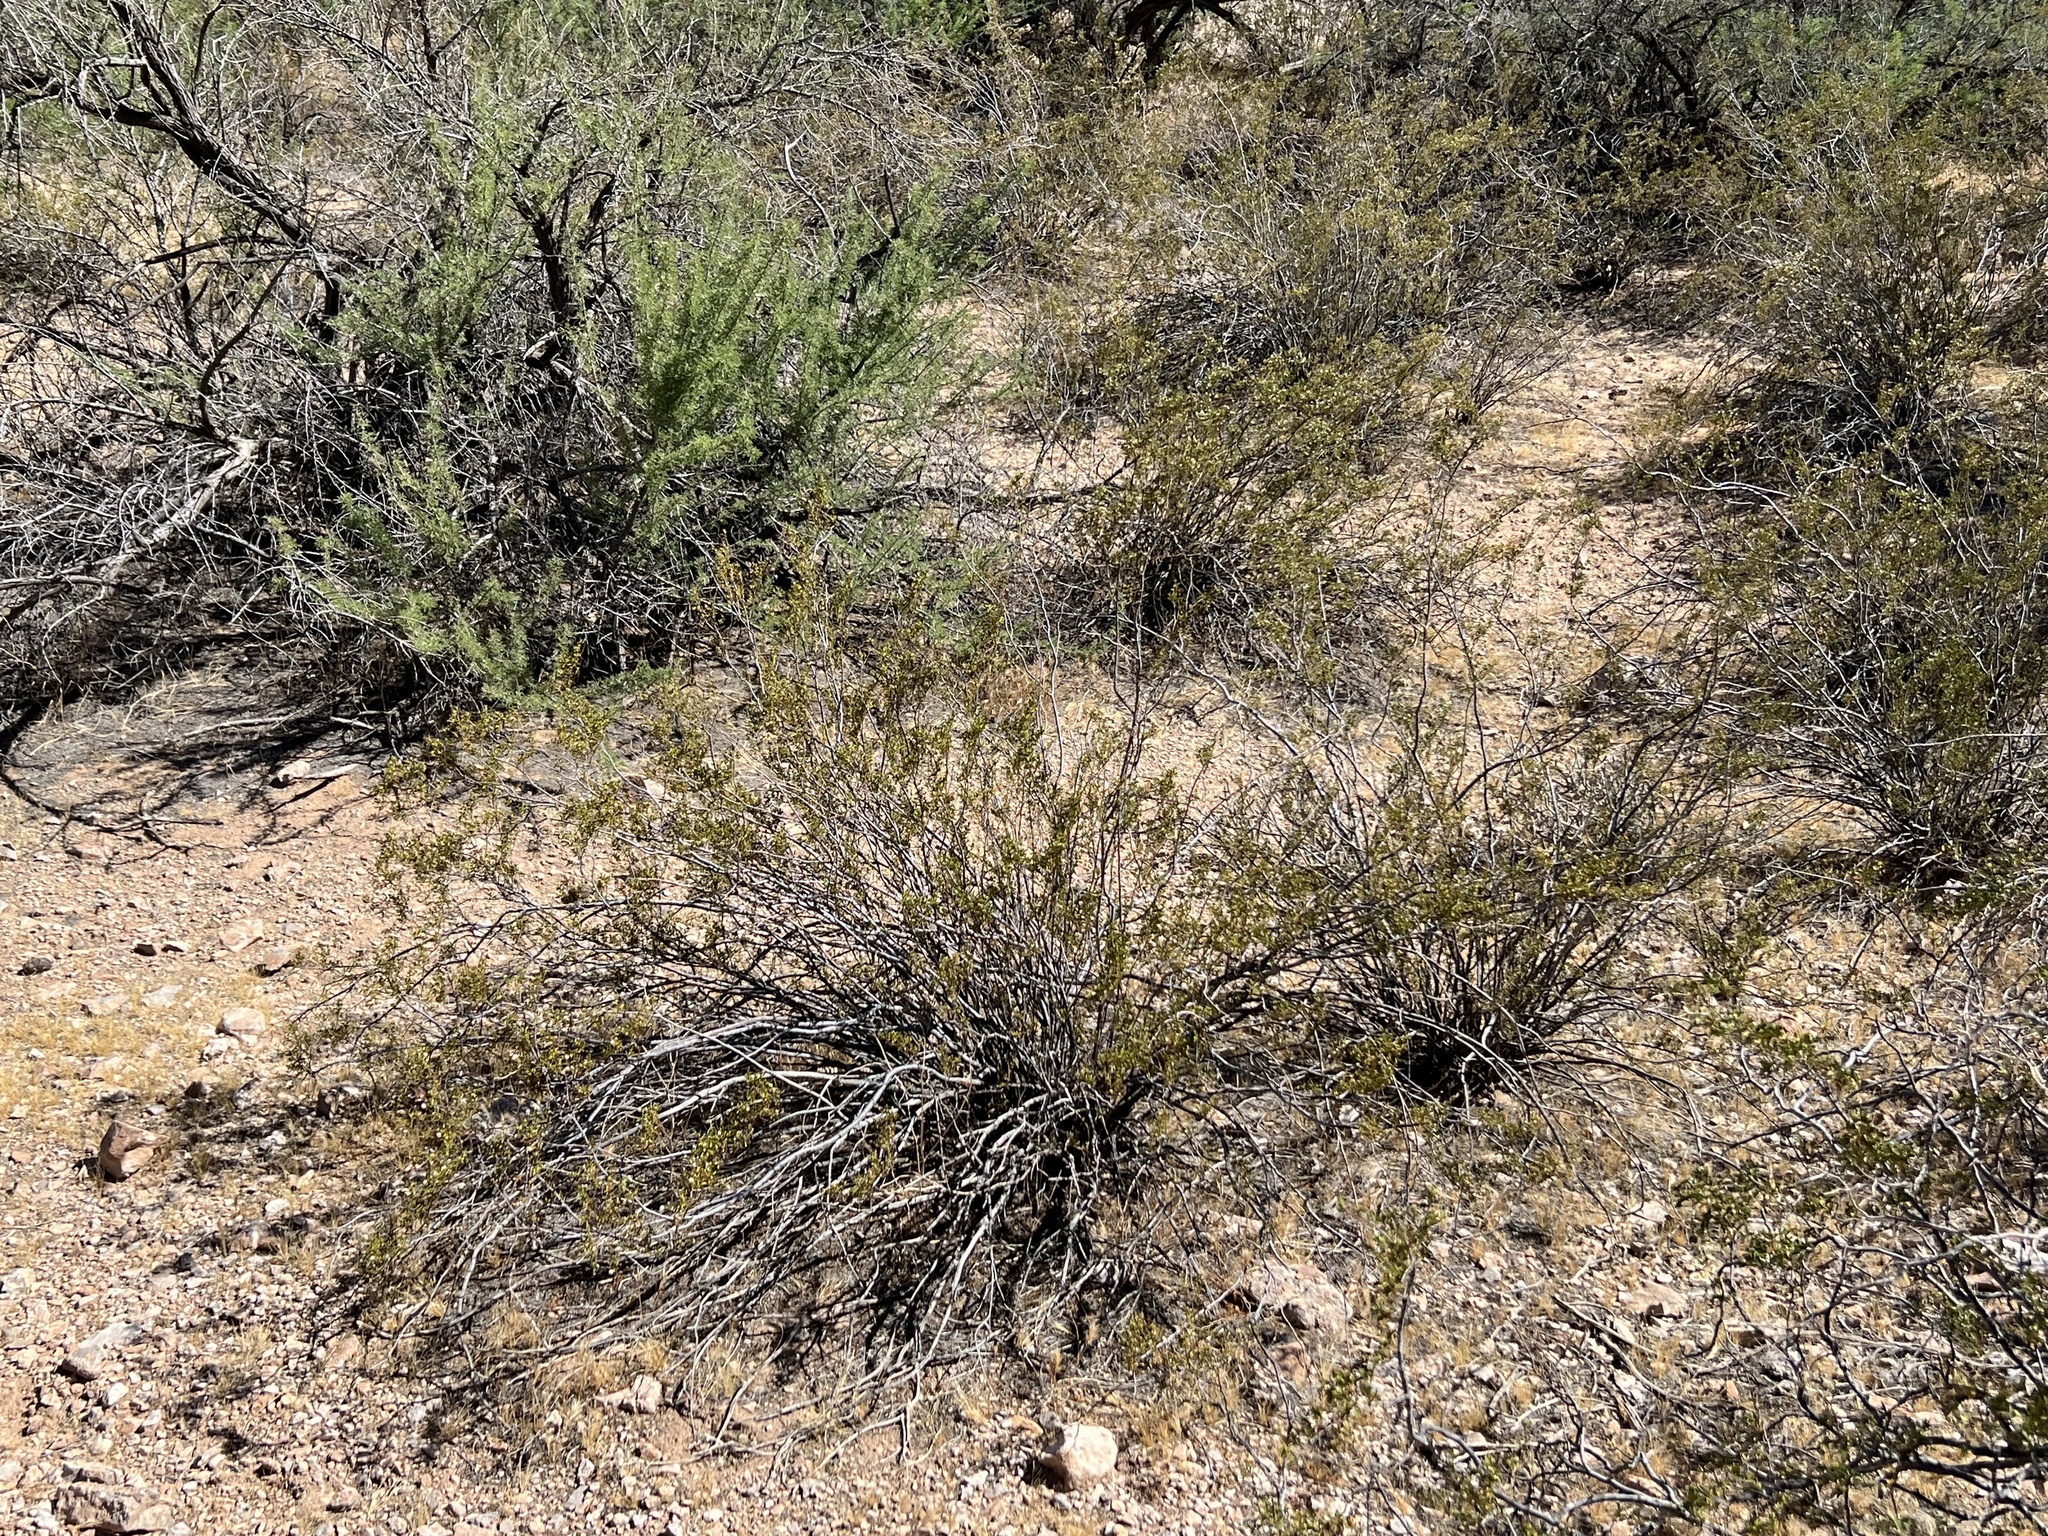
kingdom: Plantae
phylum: Tracheophyta
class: Magnoliopsida
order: Zygophyllales
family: Zygophyllaceae
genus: Larrea
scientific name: Larrea tridentata
